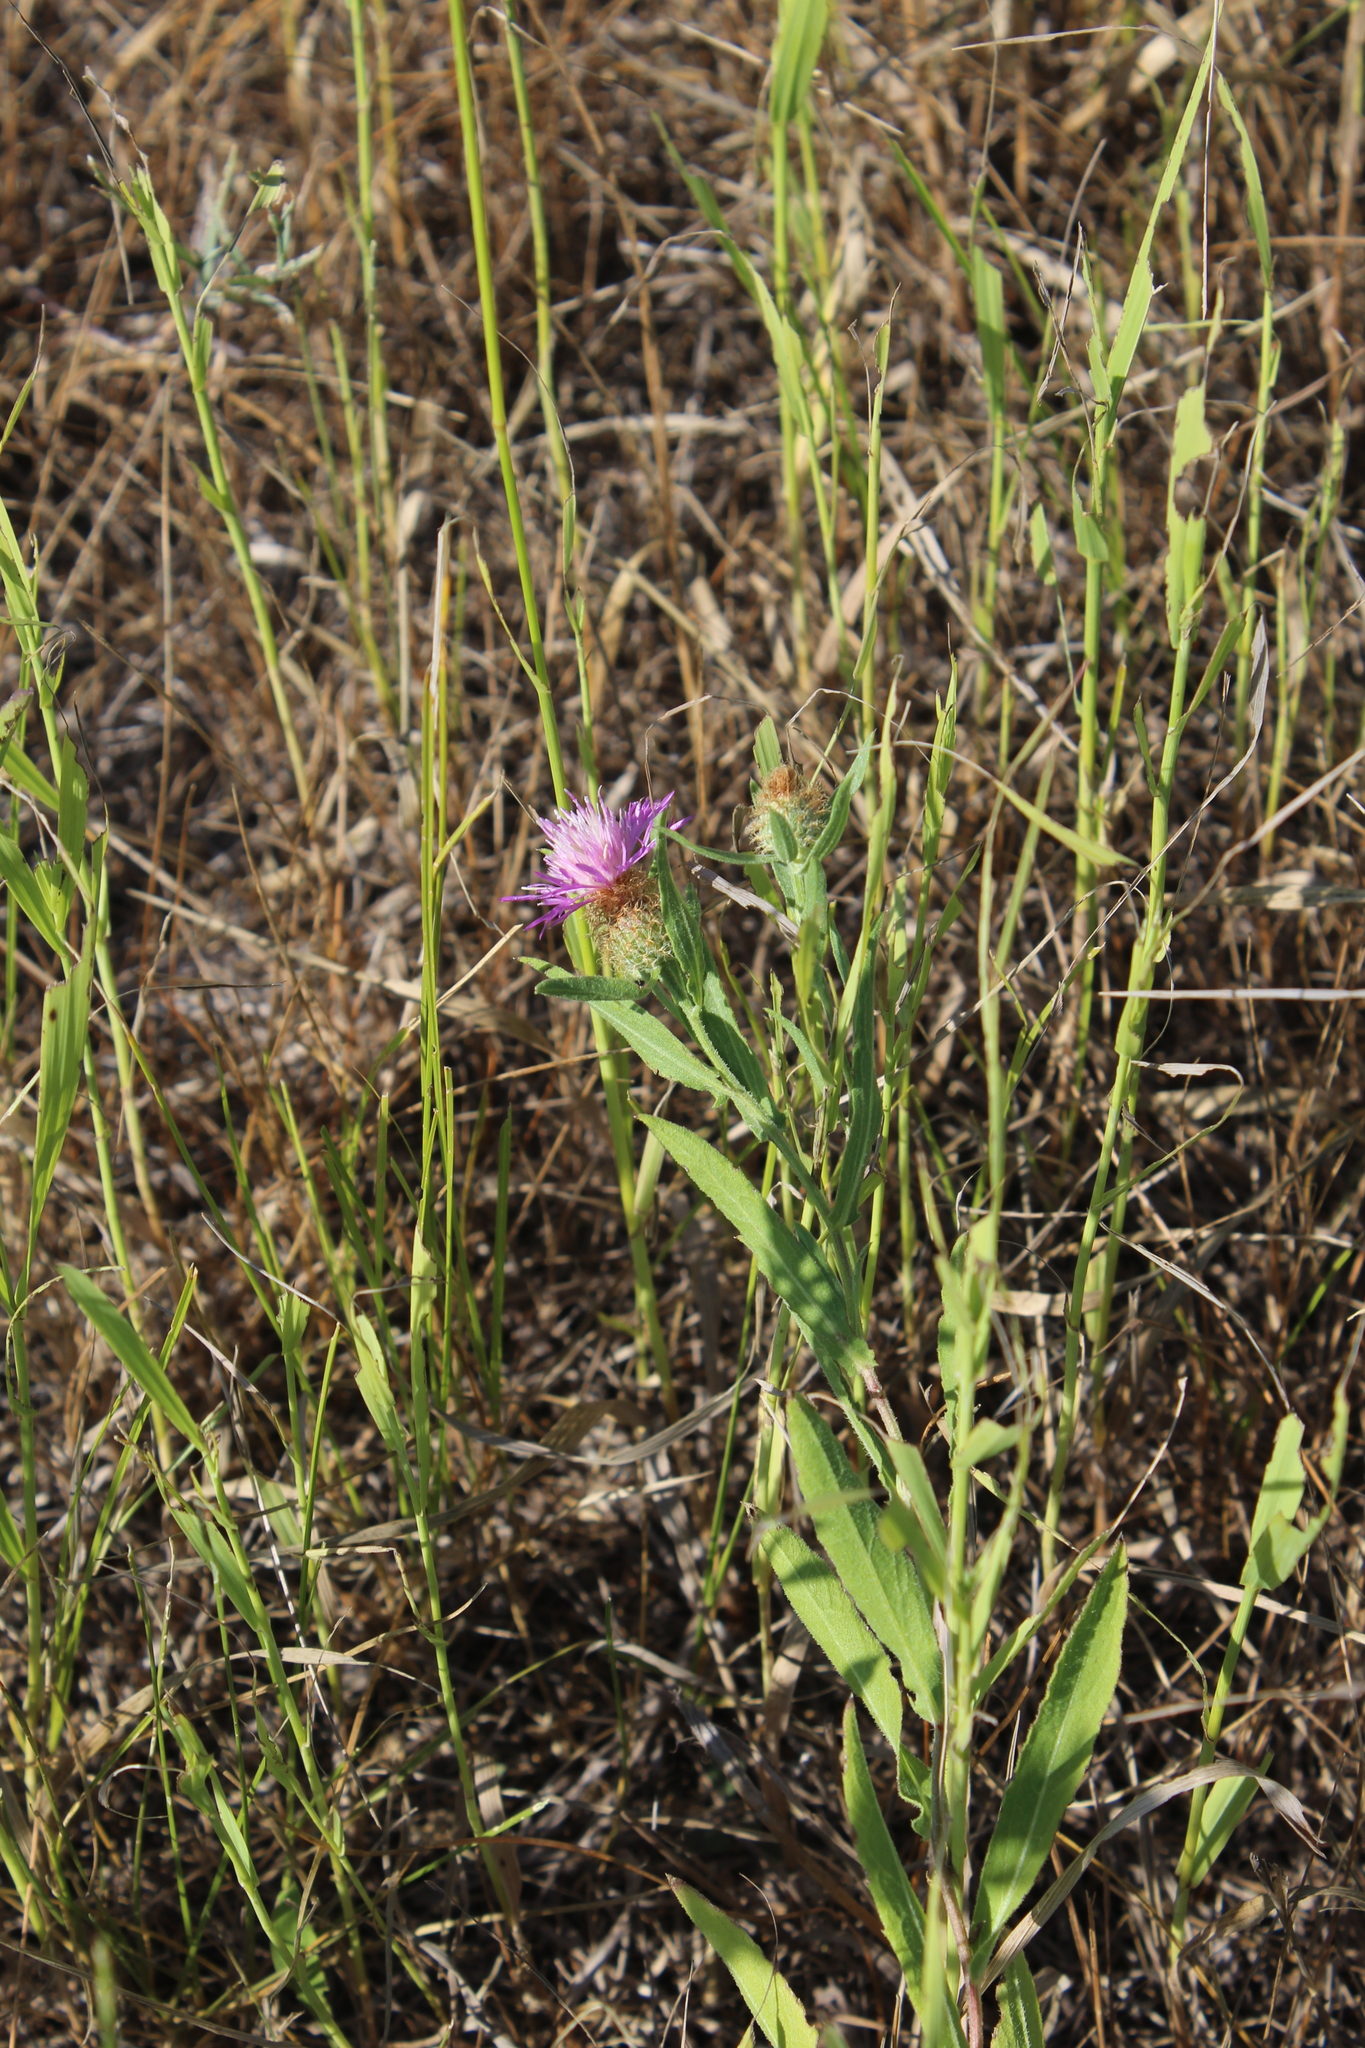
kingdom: Plantae
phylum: Tracheophyta
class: Magnoliopsida
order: Asterales
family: Asteraceae
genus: Centaurea
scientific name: Centaurea trichocephala
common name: Feather-head knapweed
